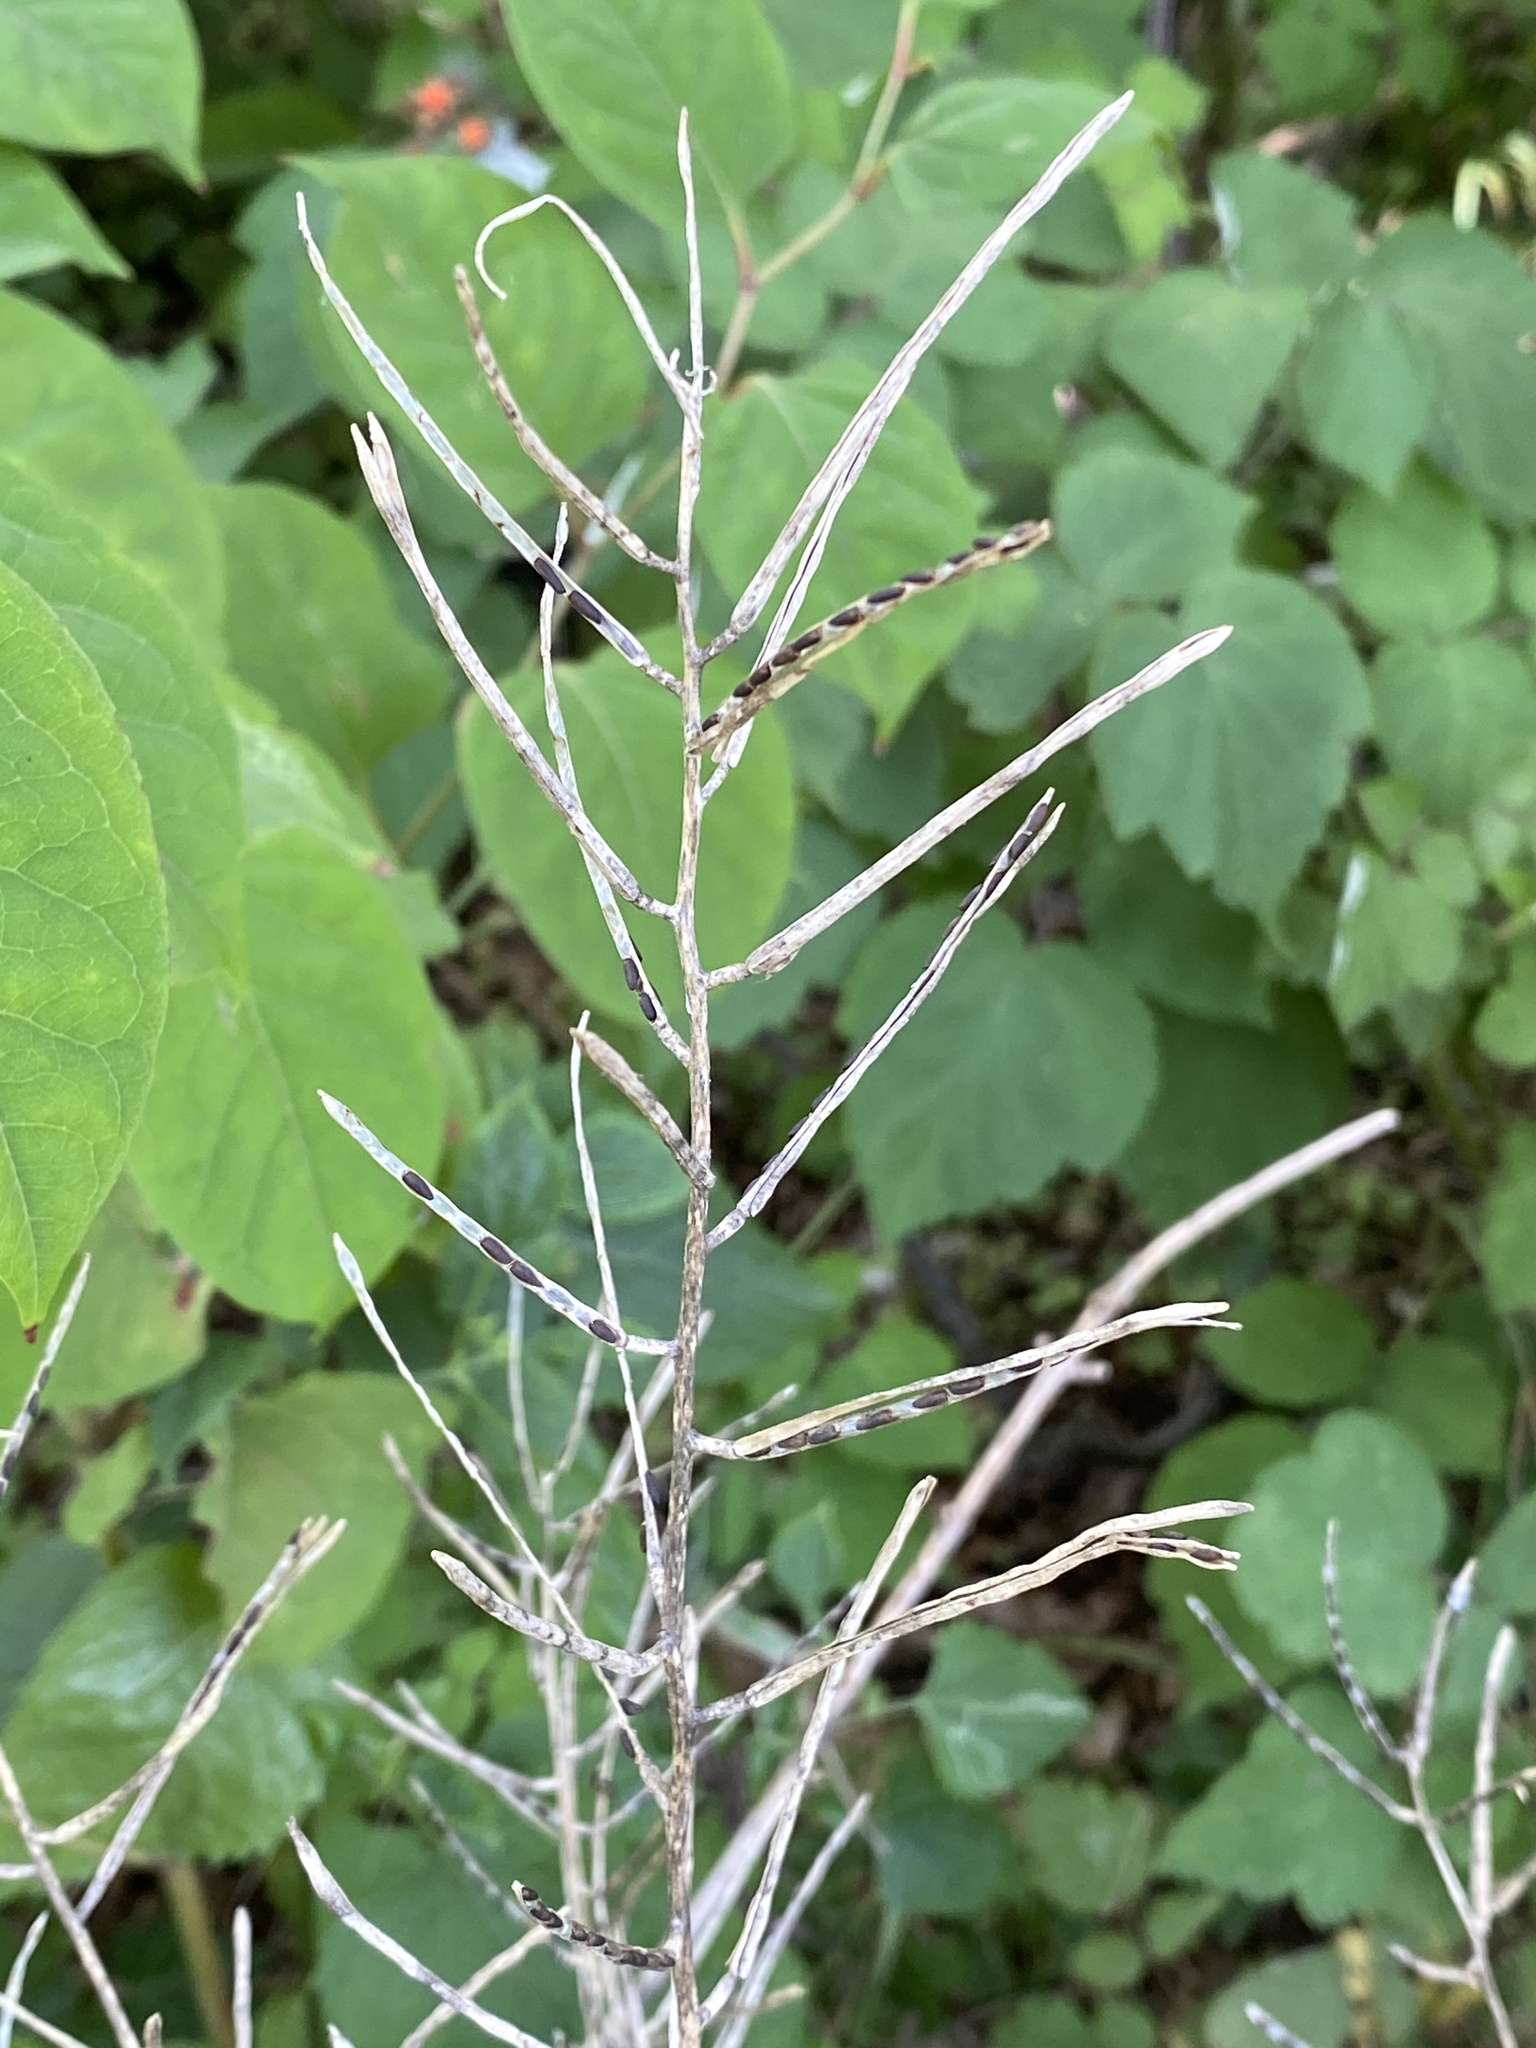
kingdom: Plantae
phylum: Tracheophyta
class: Magnoliopsida
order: Brassicales
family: Brassicaceae
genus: Alliaria
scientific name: Alliaria petiolata
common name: Garlic mustard
